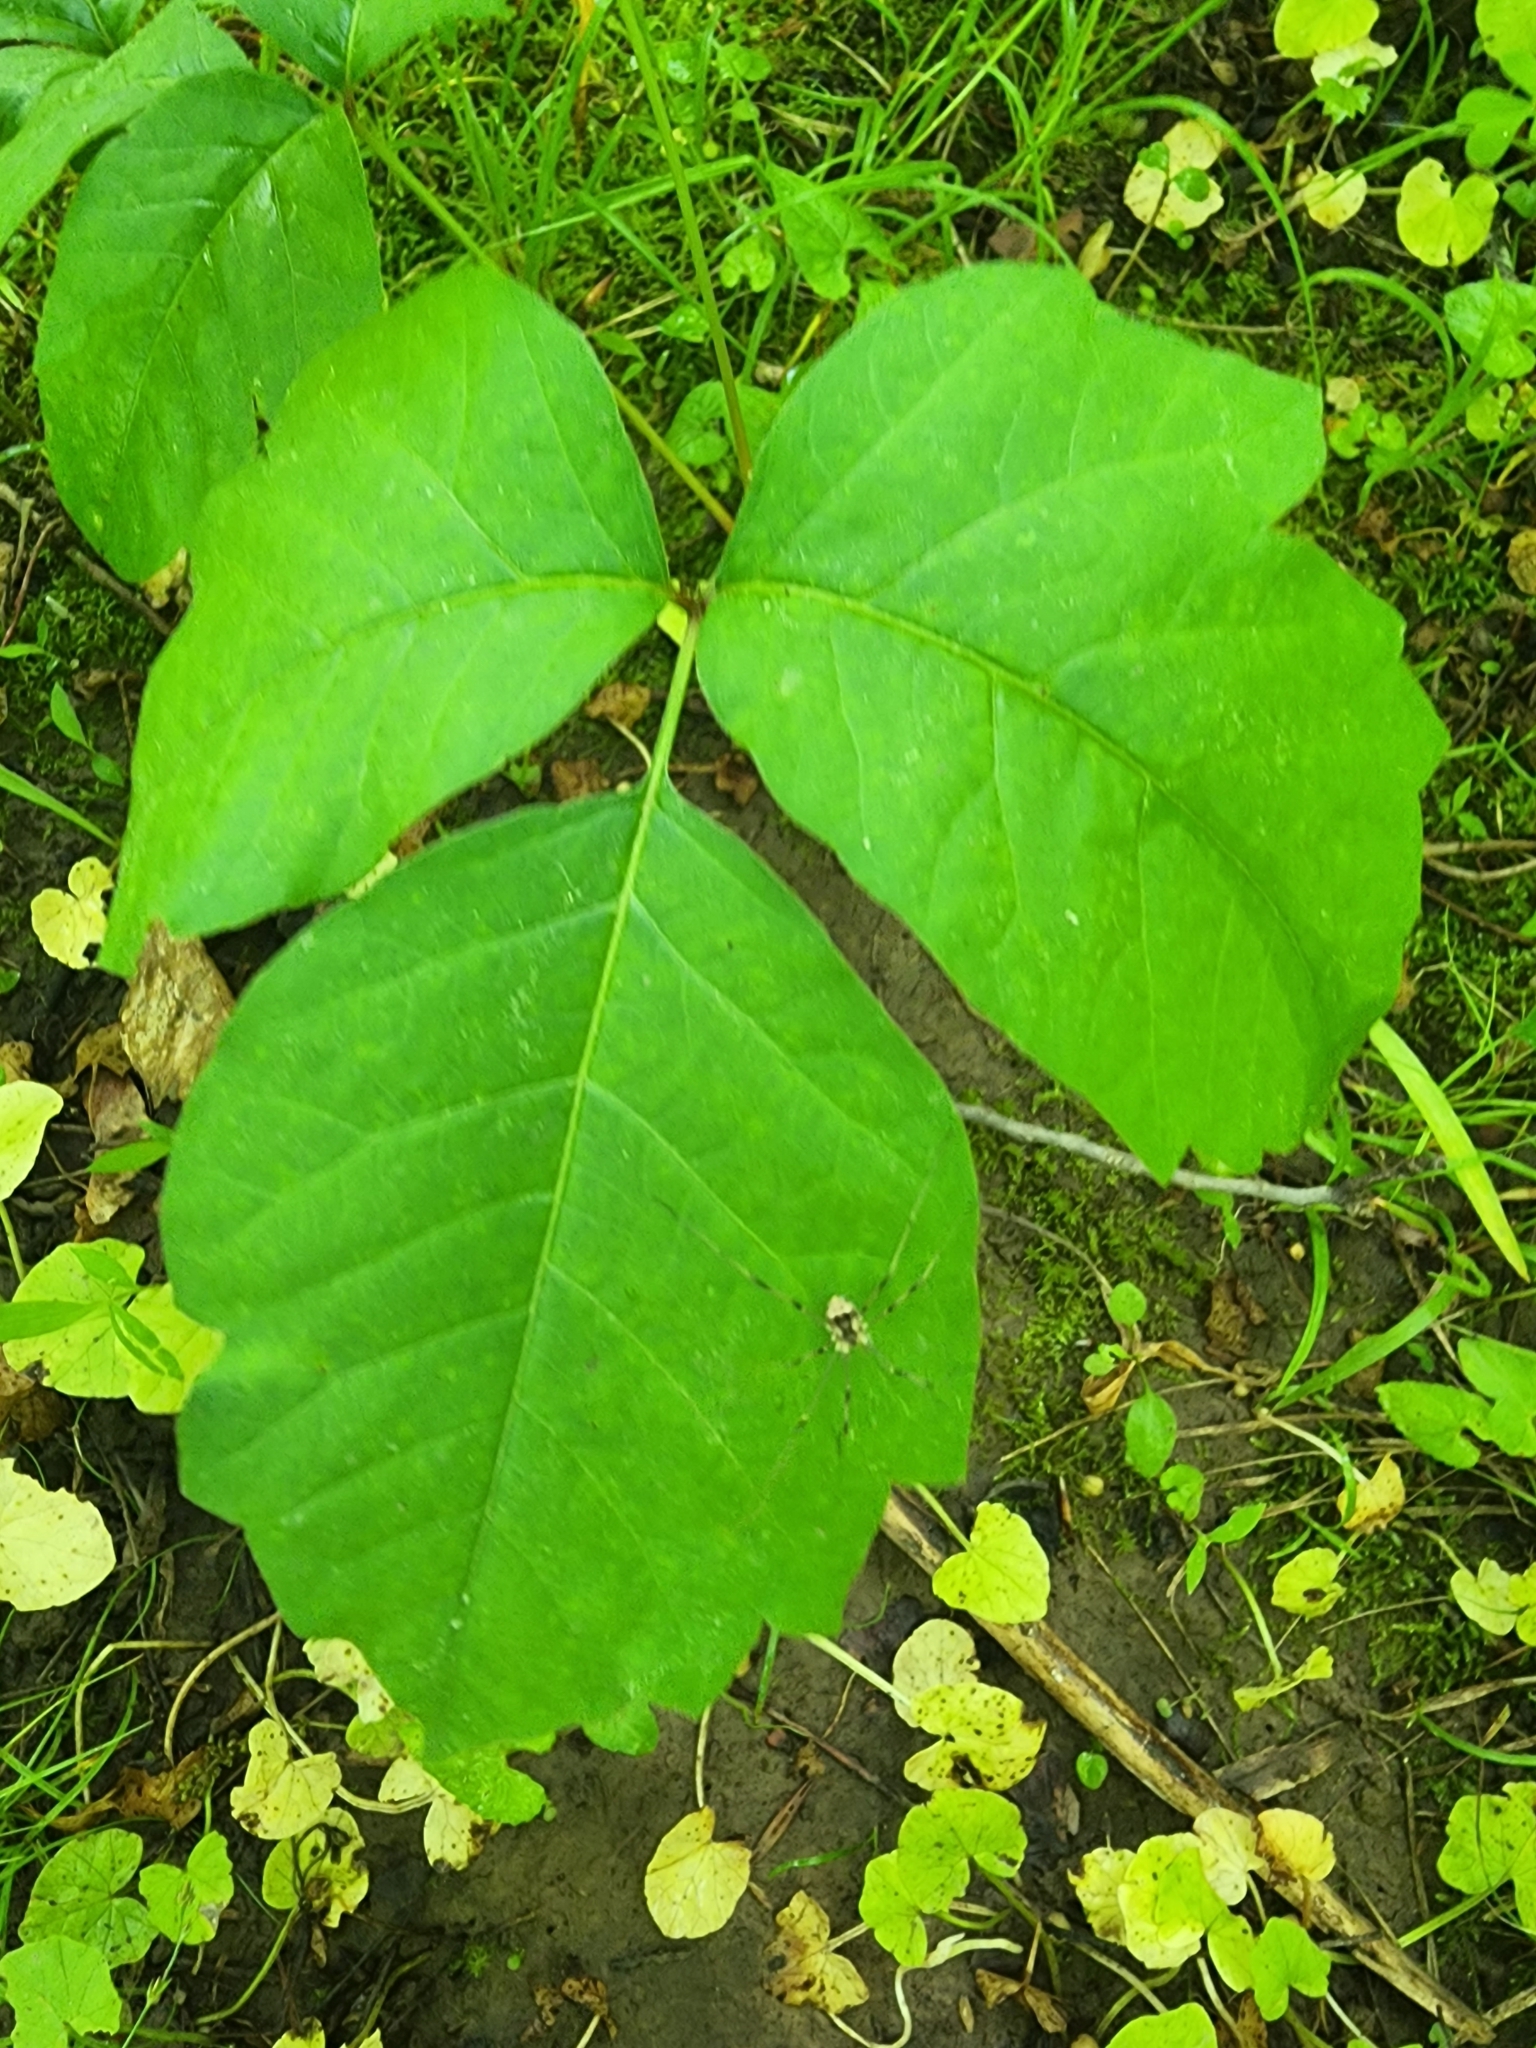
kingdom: Plantae
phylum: Tracheophyta
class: Magnoliopsida
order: Sapindales
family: Anacardiaceae
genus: Toxicodendron
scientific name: Toxicodendron radicans
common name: Poison ivy
